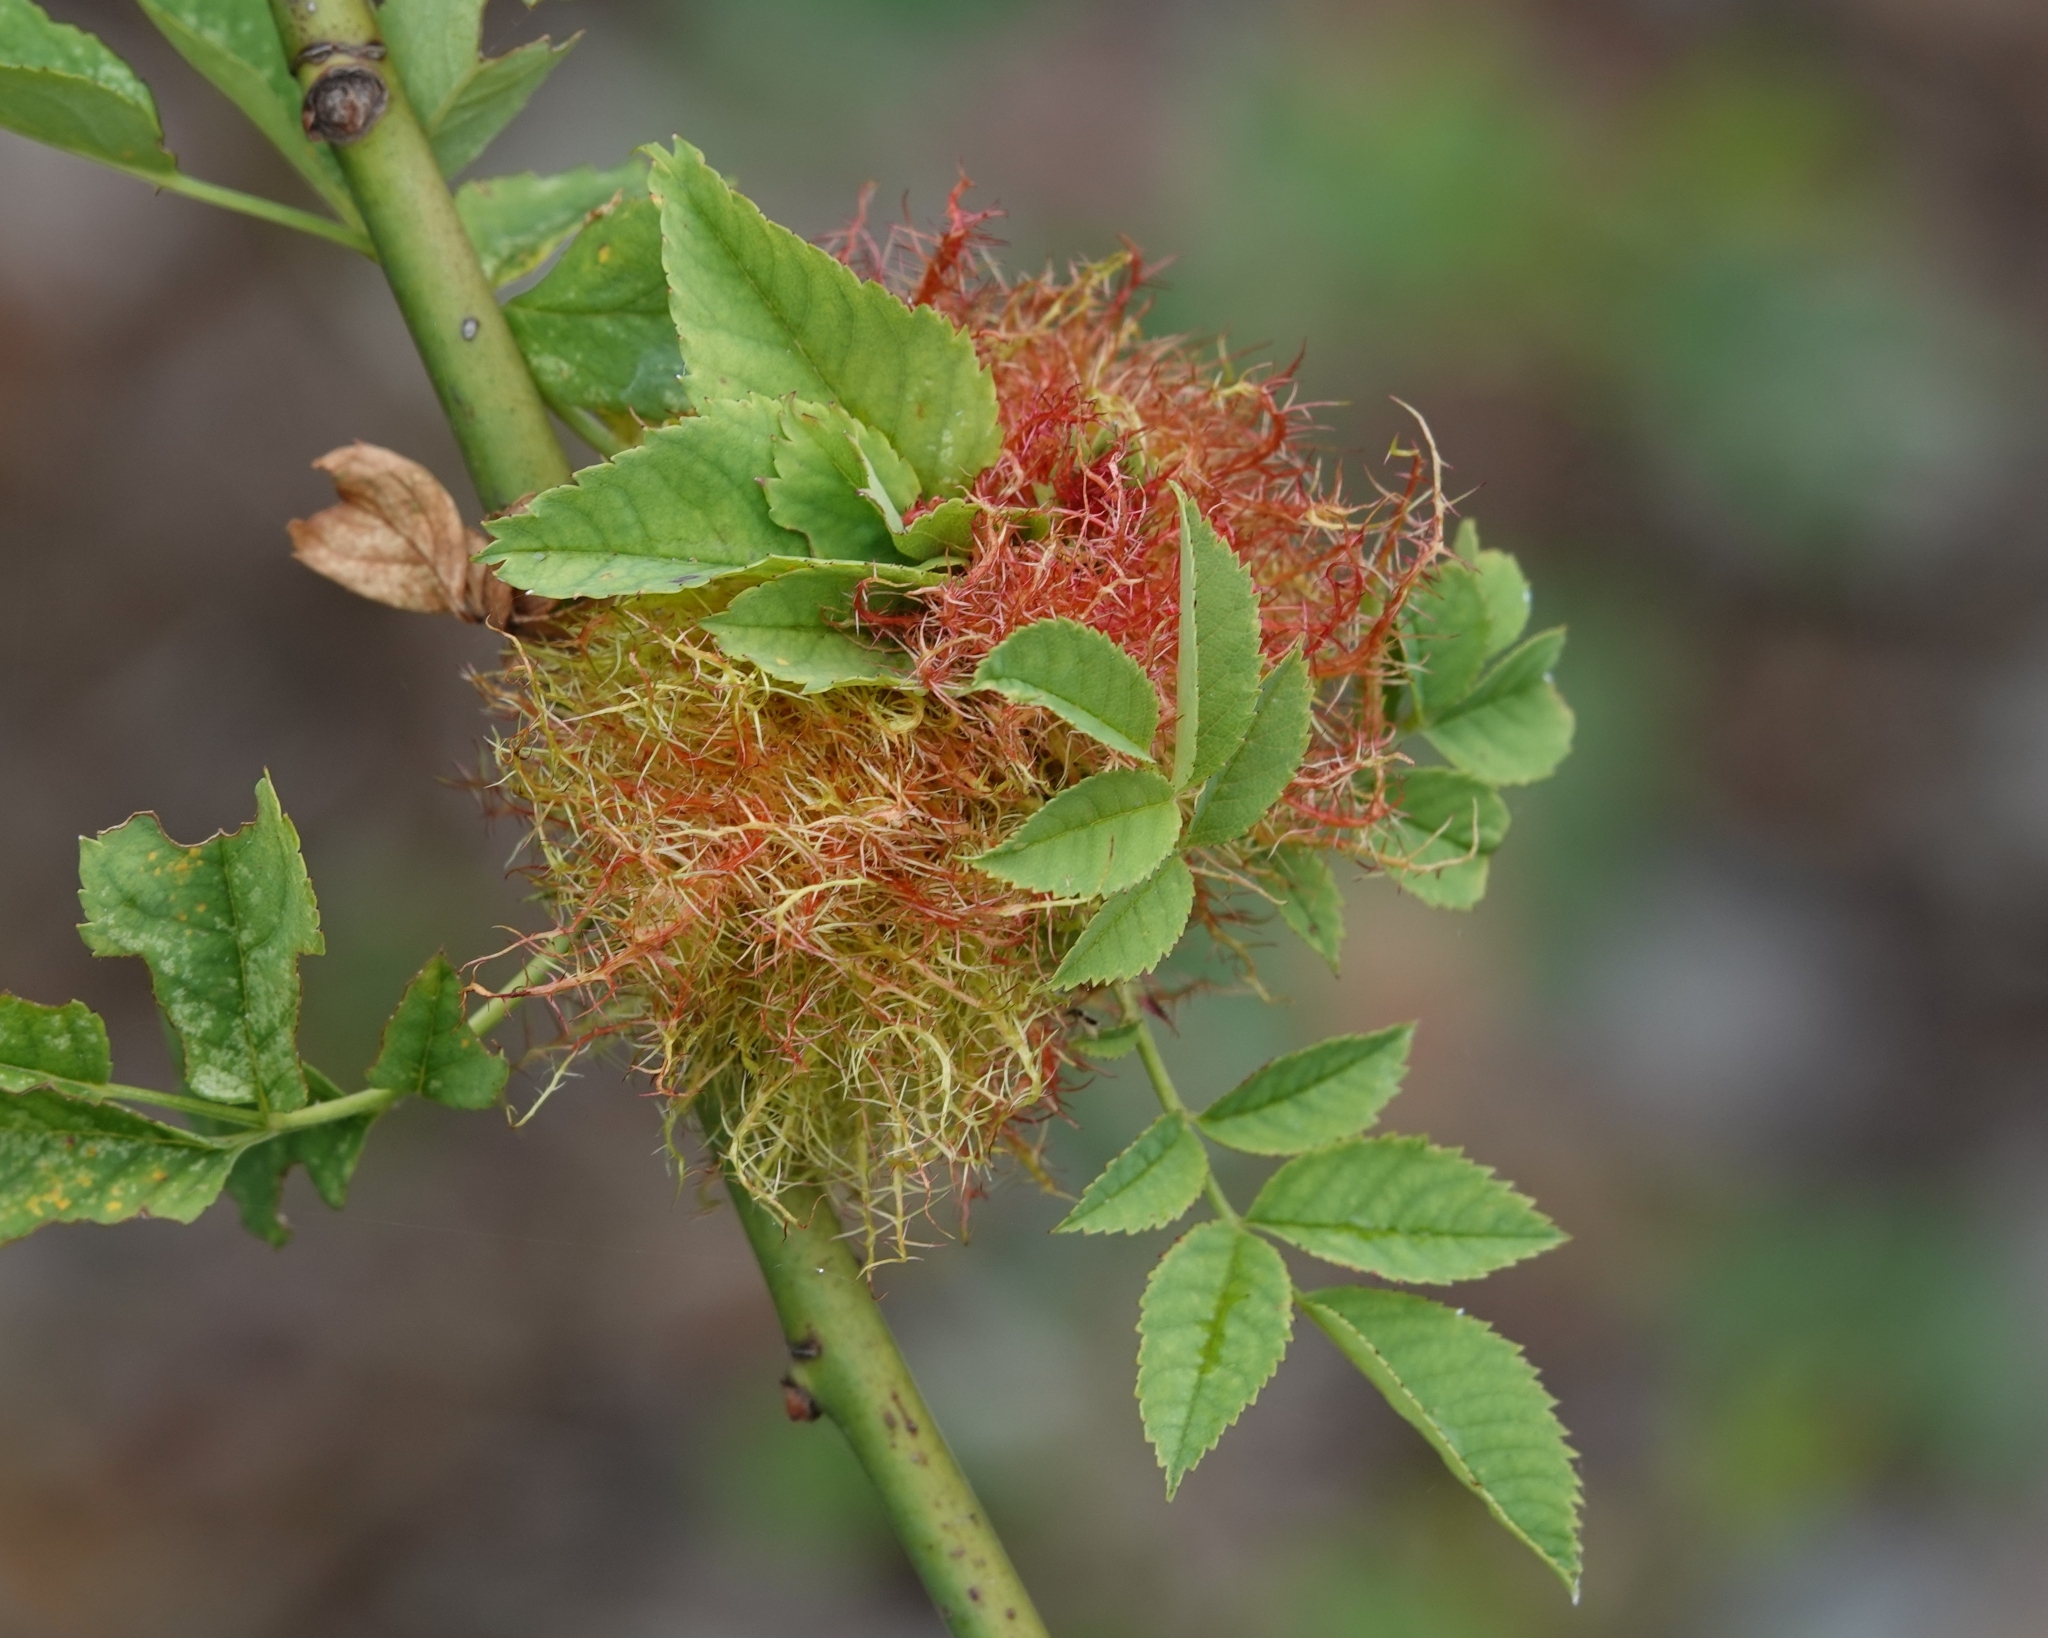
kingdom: Animalia
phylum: Arthropoda
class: Insecta
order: Hymenoptera
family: Cynipidae
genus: Diplolepis
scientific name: Diplolepis rosae
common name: Bedeguar gall
